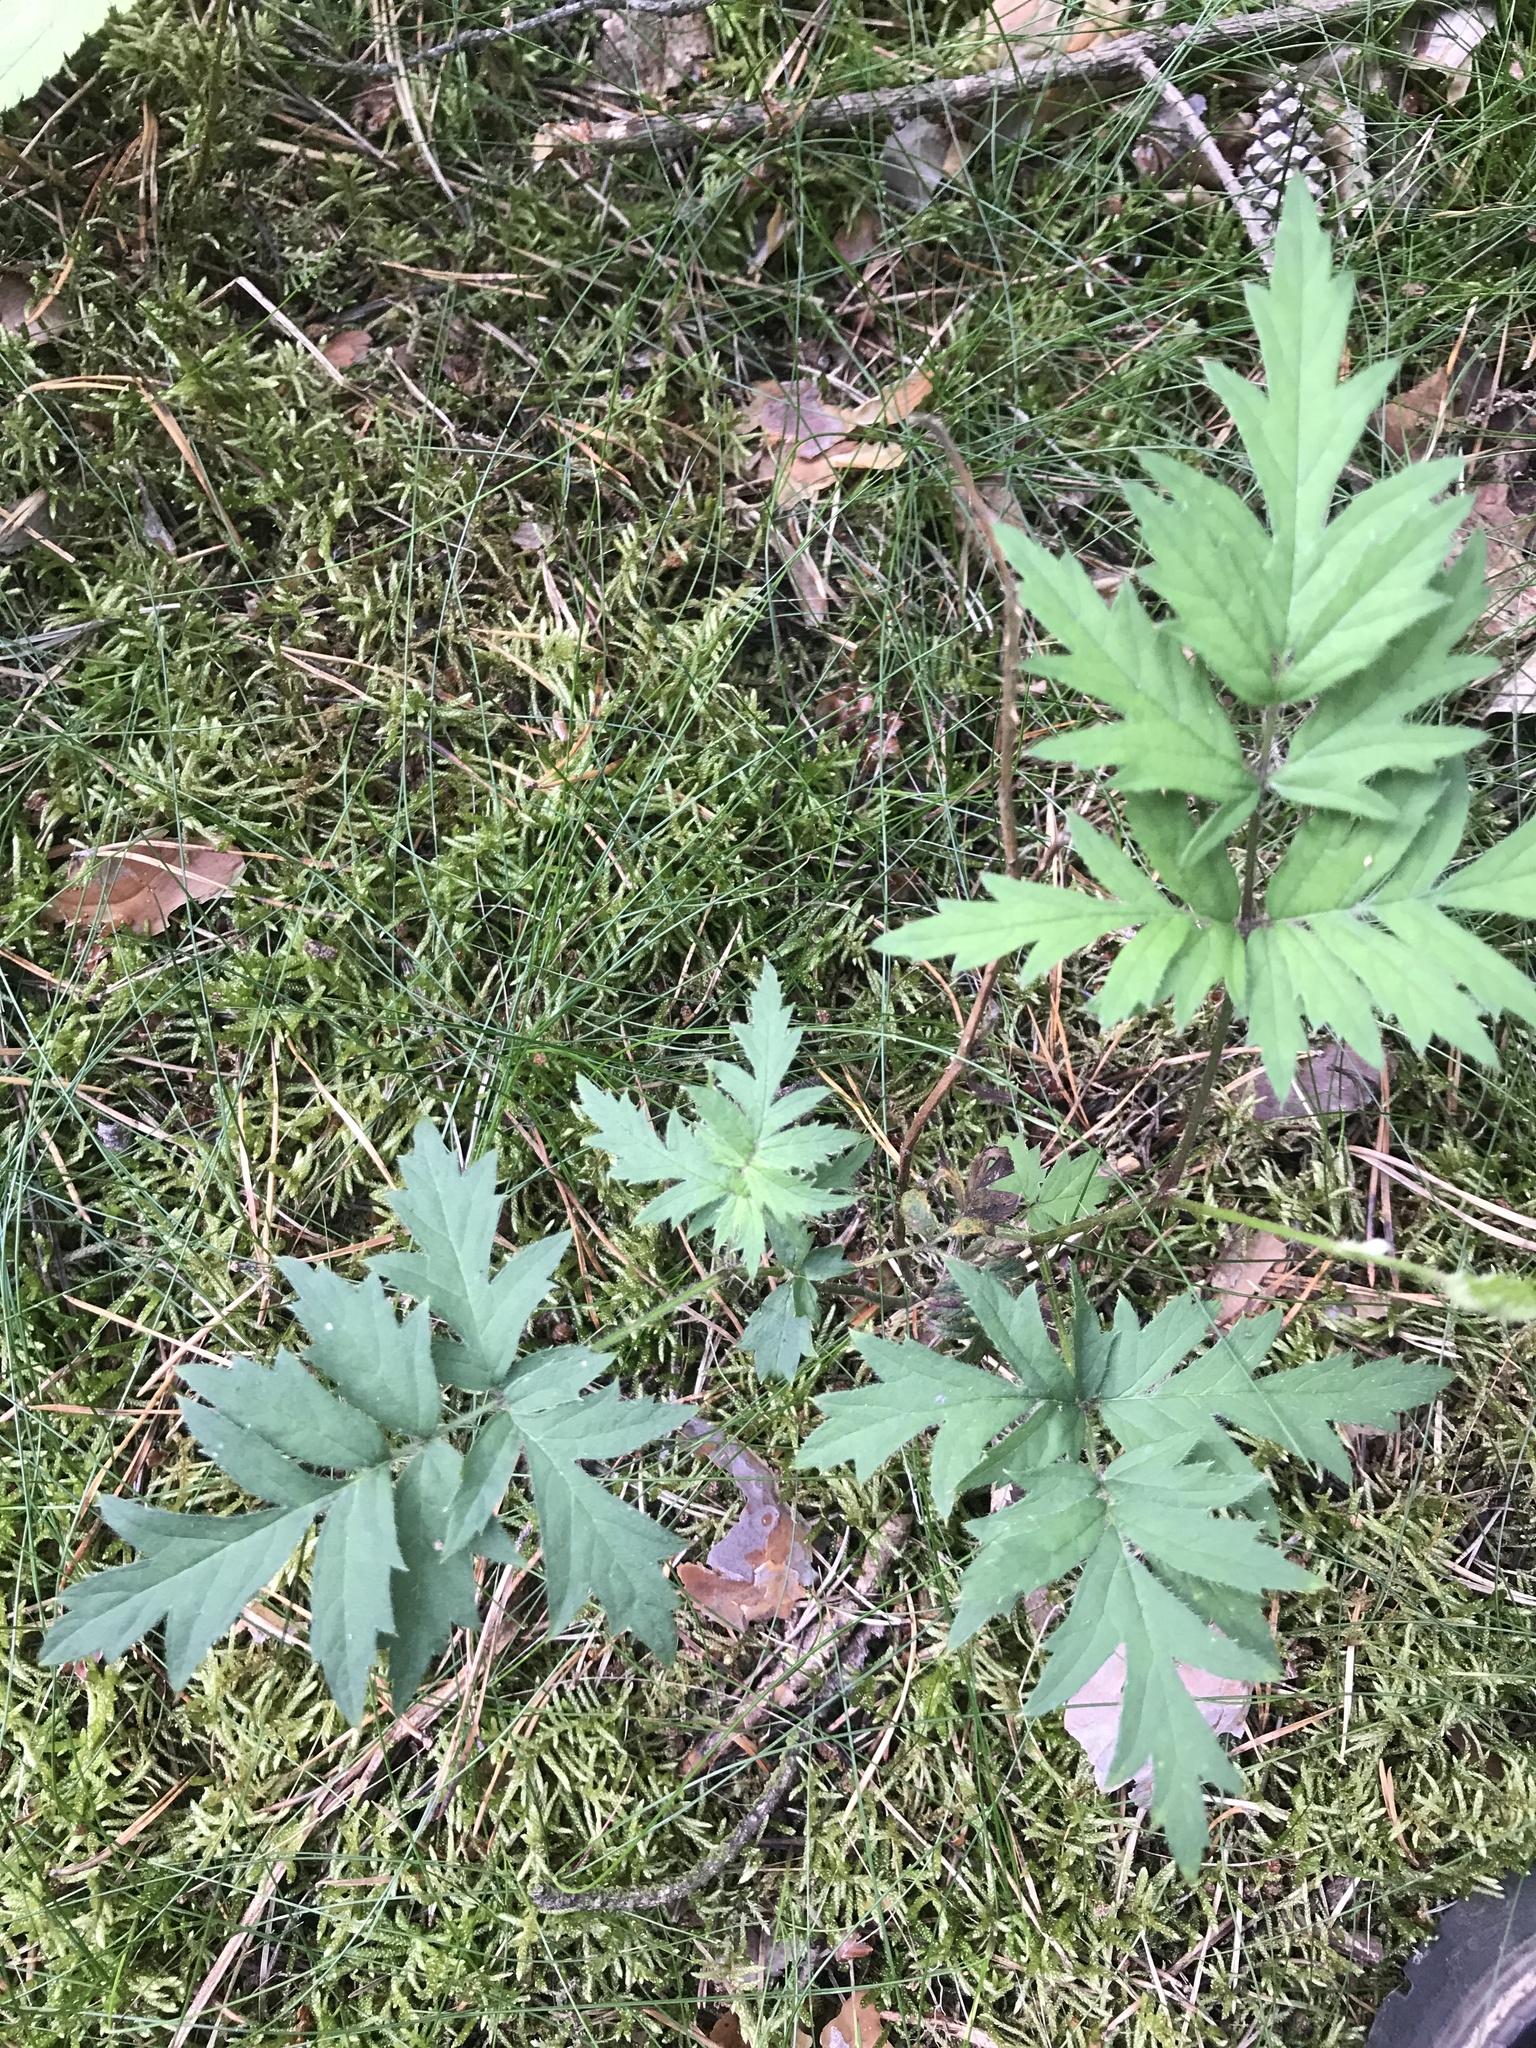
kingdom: Plantae
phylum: Tracheophyta
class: Magnoliopsida
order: Rosales
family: Rosaceae
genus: Rubus
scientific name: Rubus laciniatus
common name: Evergreen blackberry
